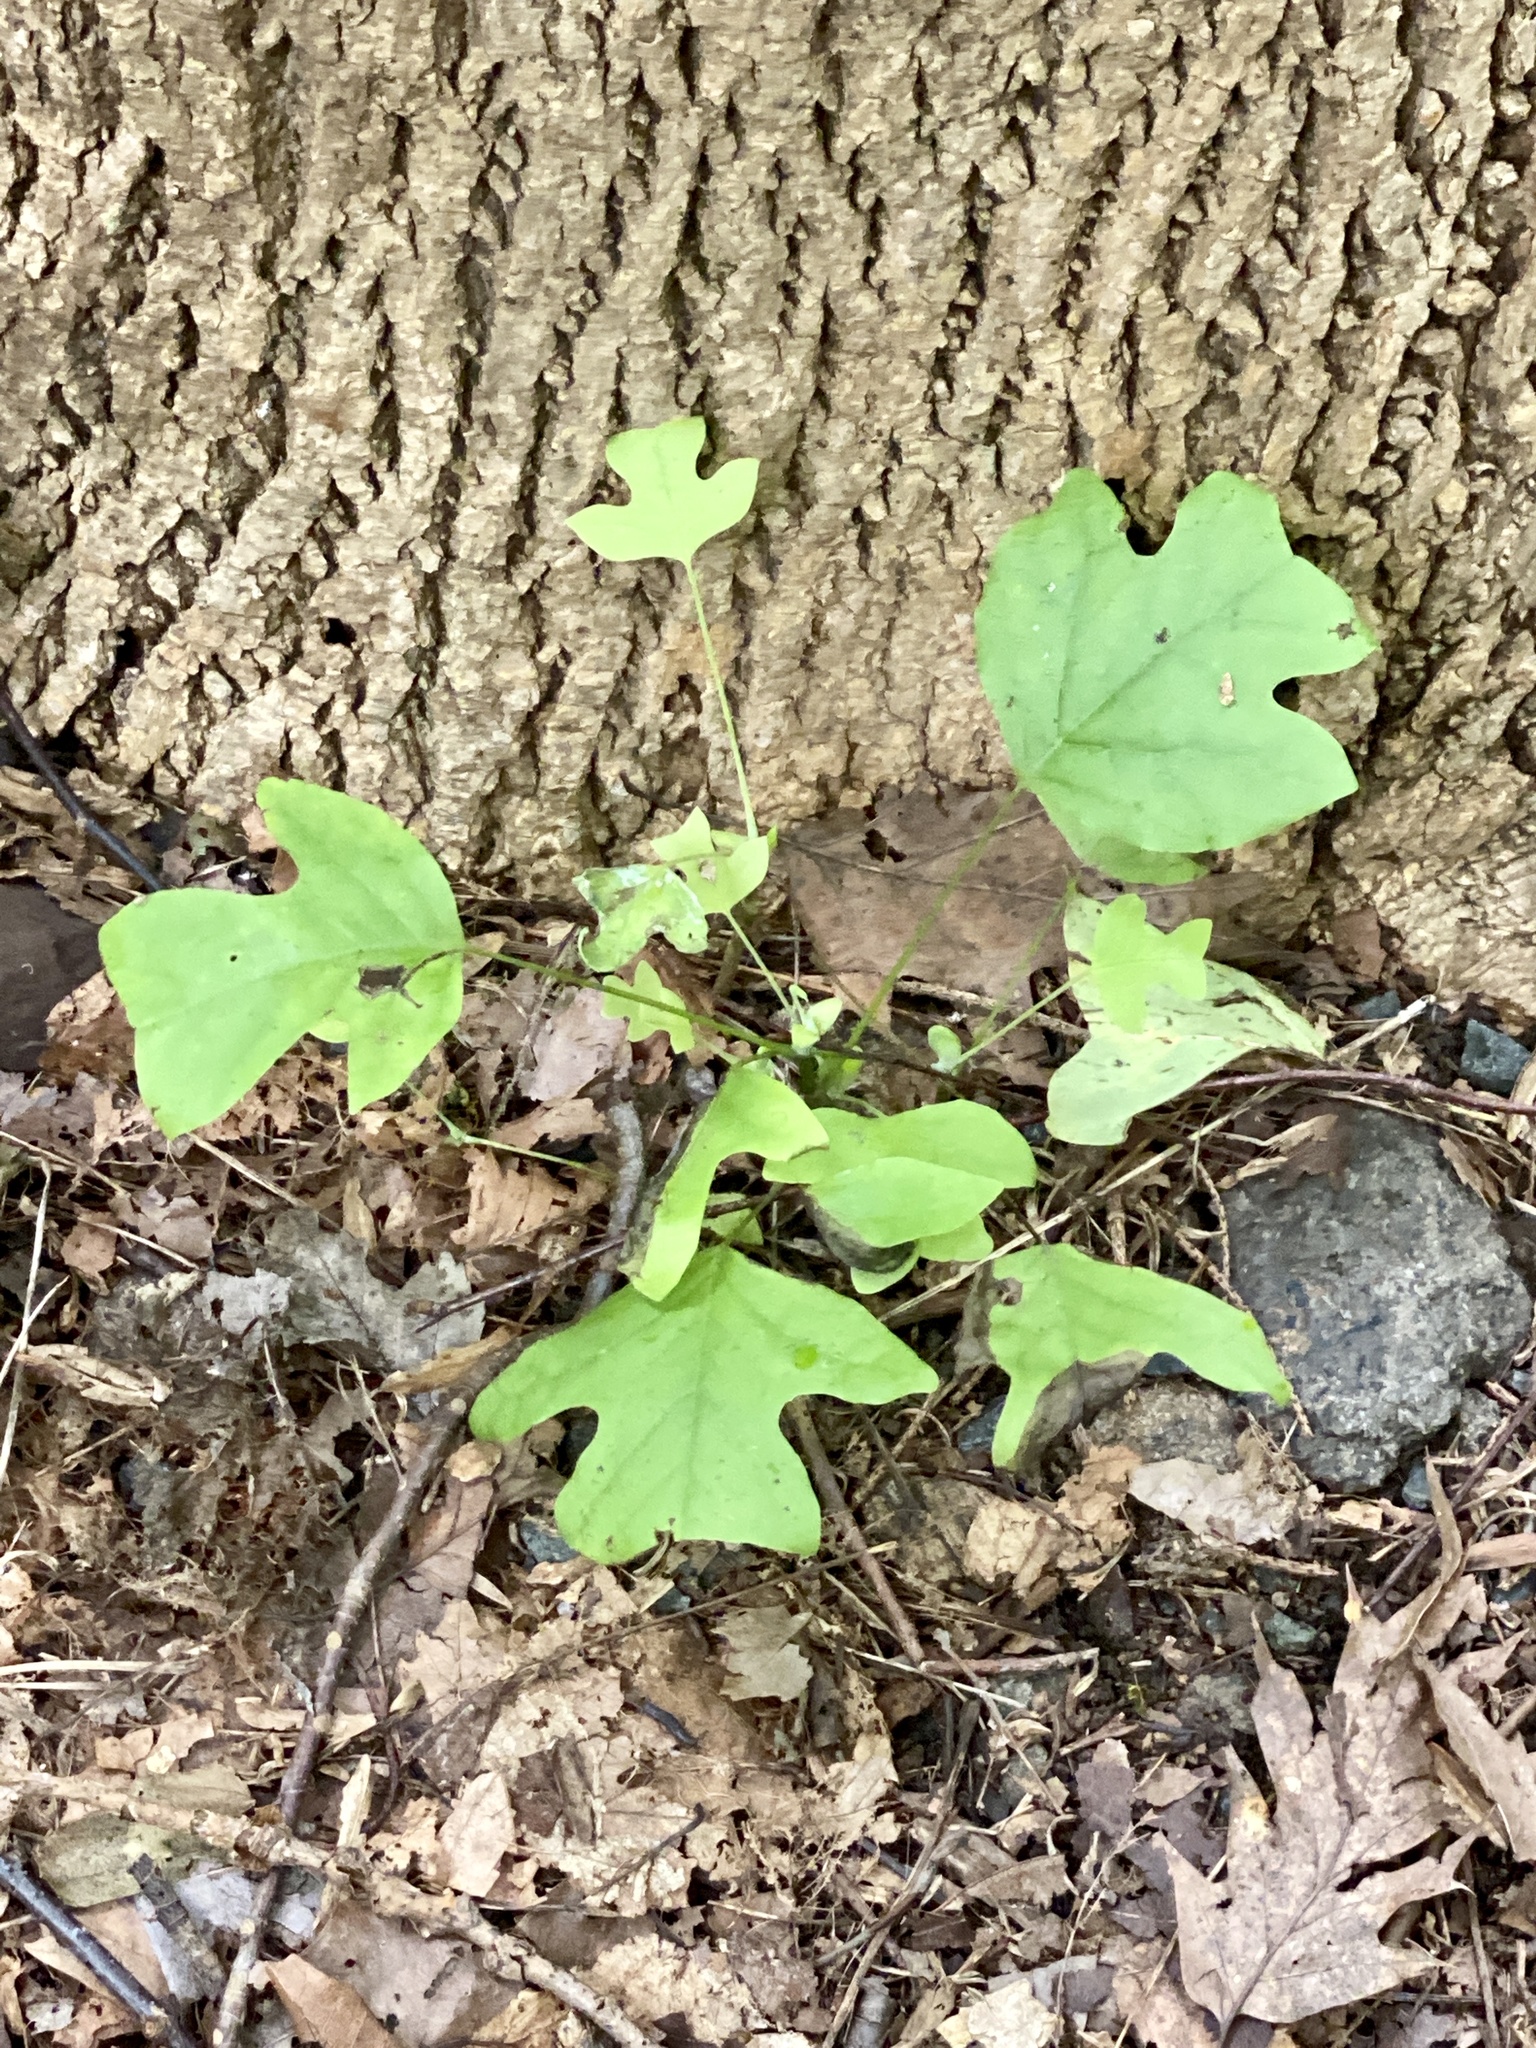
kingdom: Plantae
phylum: Tracheophyta
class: Magnoliopsida
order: Magnoliales
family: Magnoliaceae
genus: Liriodendron
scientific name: Liriodendron tulipifera
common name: Tulip tree
